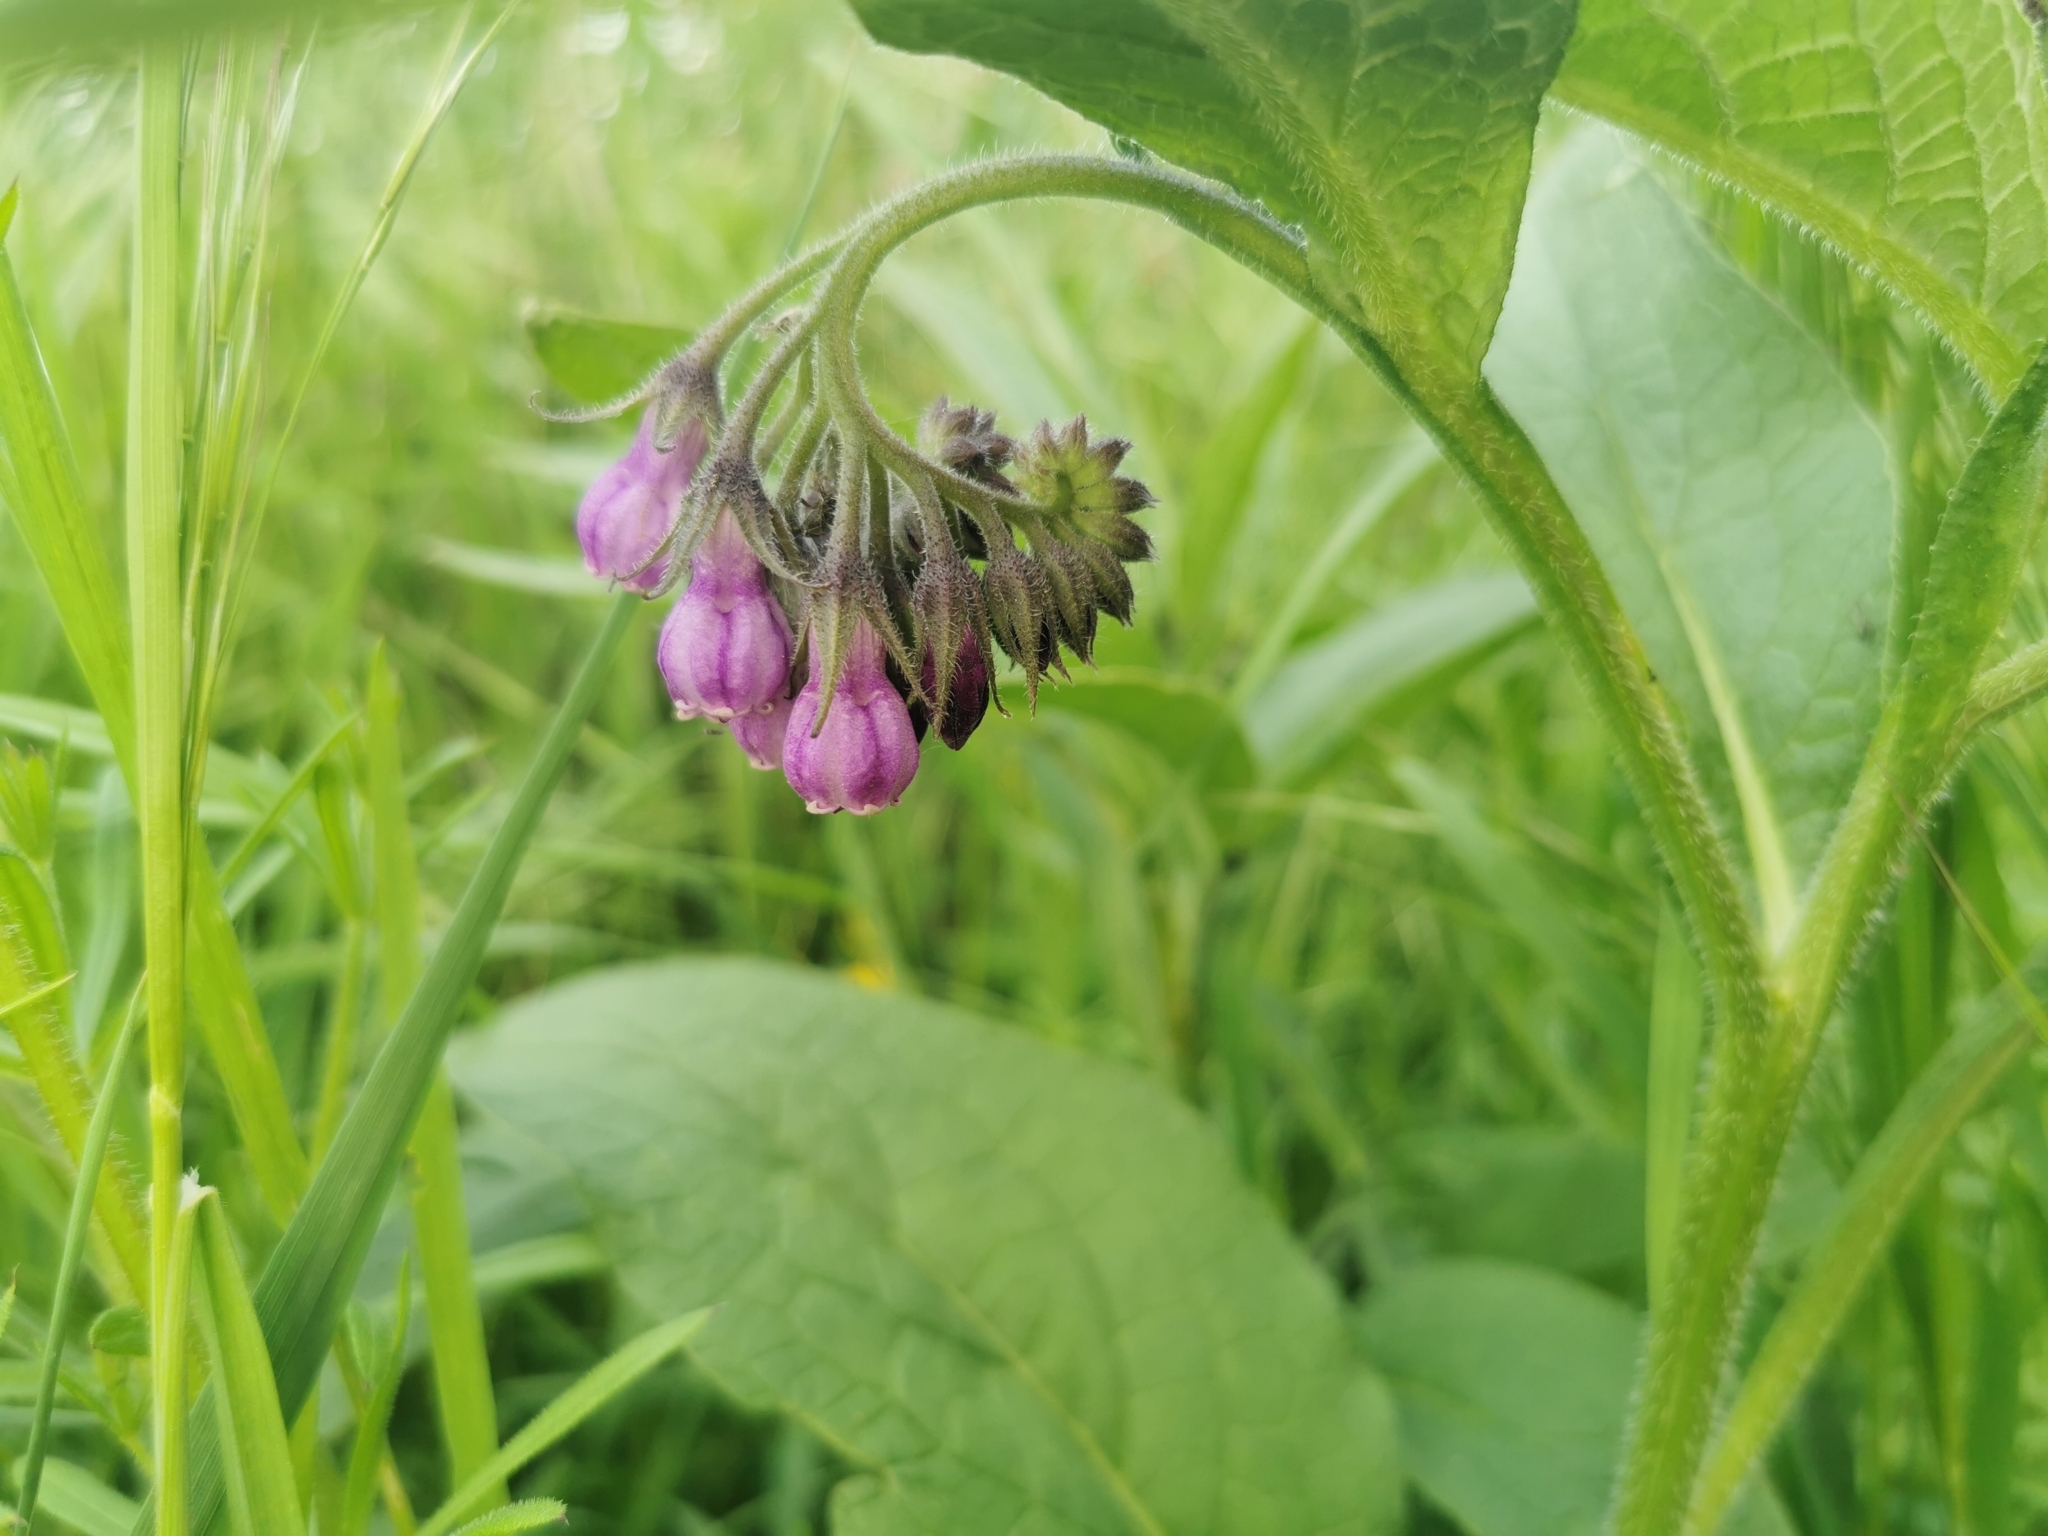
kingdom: Plantae
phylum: Tracheophyta
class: Magnoliopsida
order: Boraginales
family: Boraginaceae
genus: Symphytum
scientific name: Symphytum officinale
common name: Common comfrey
